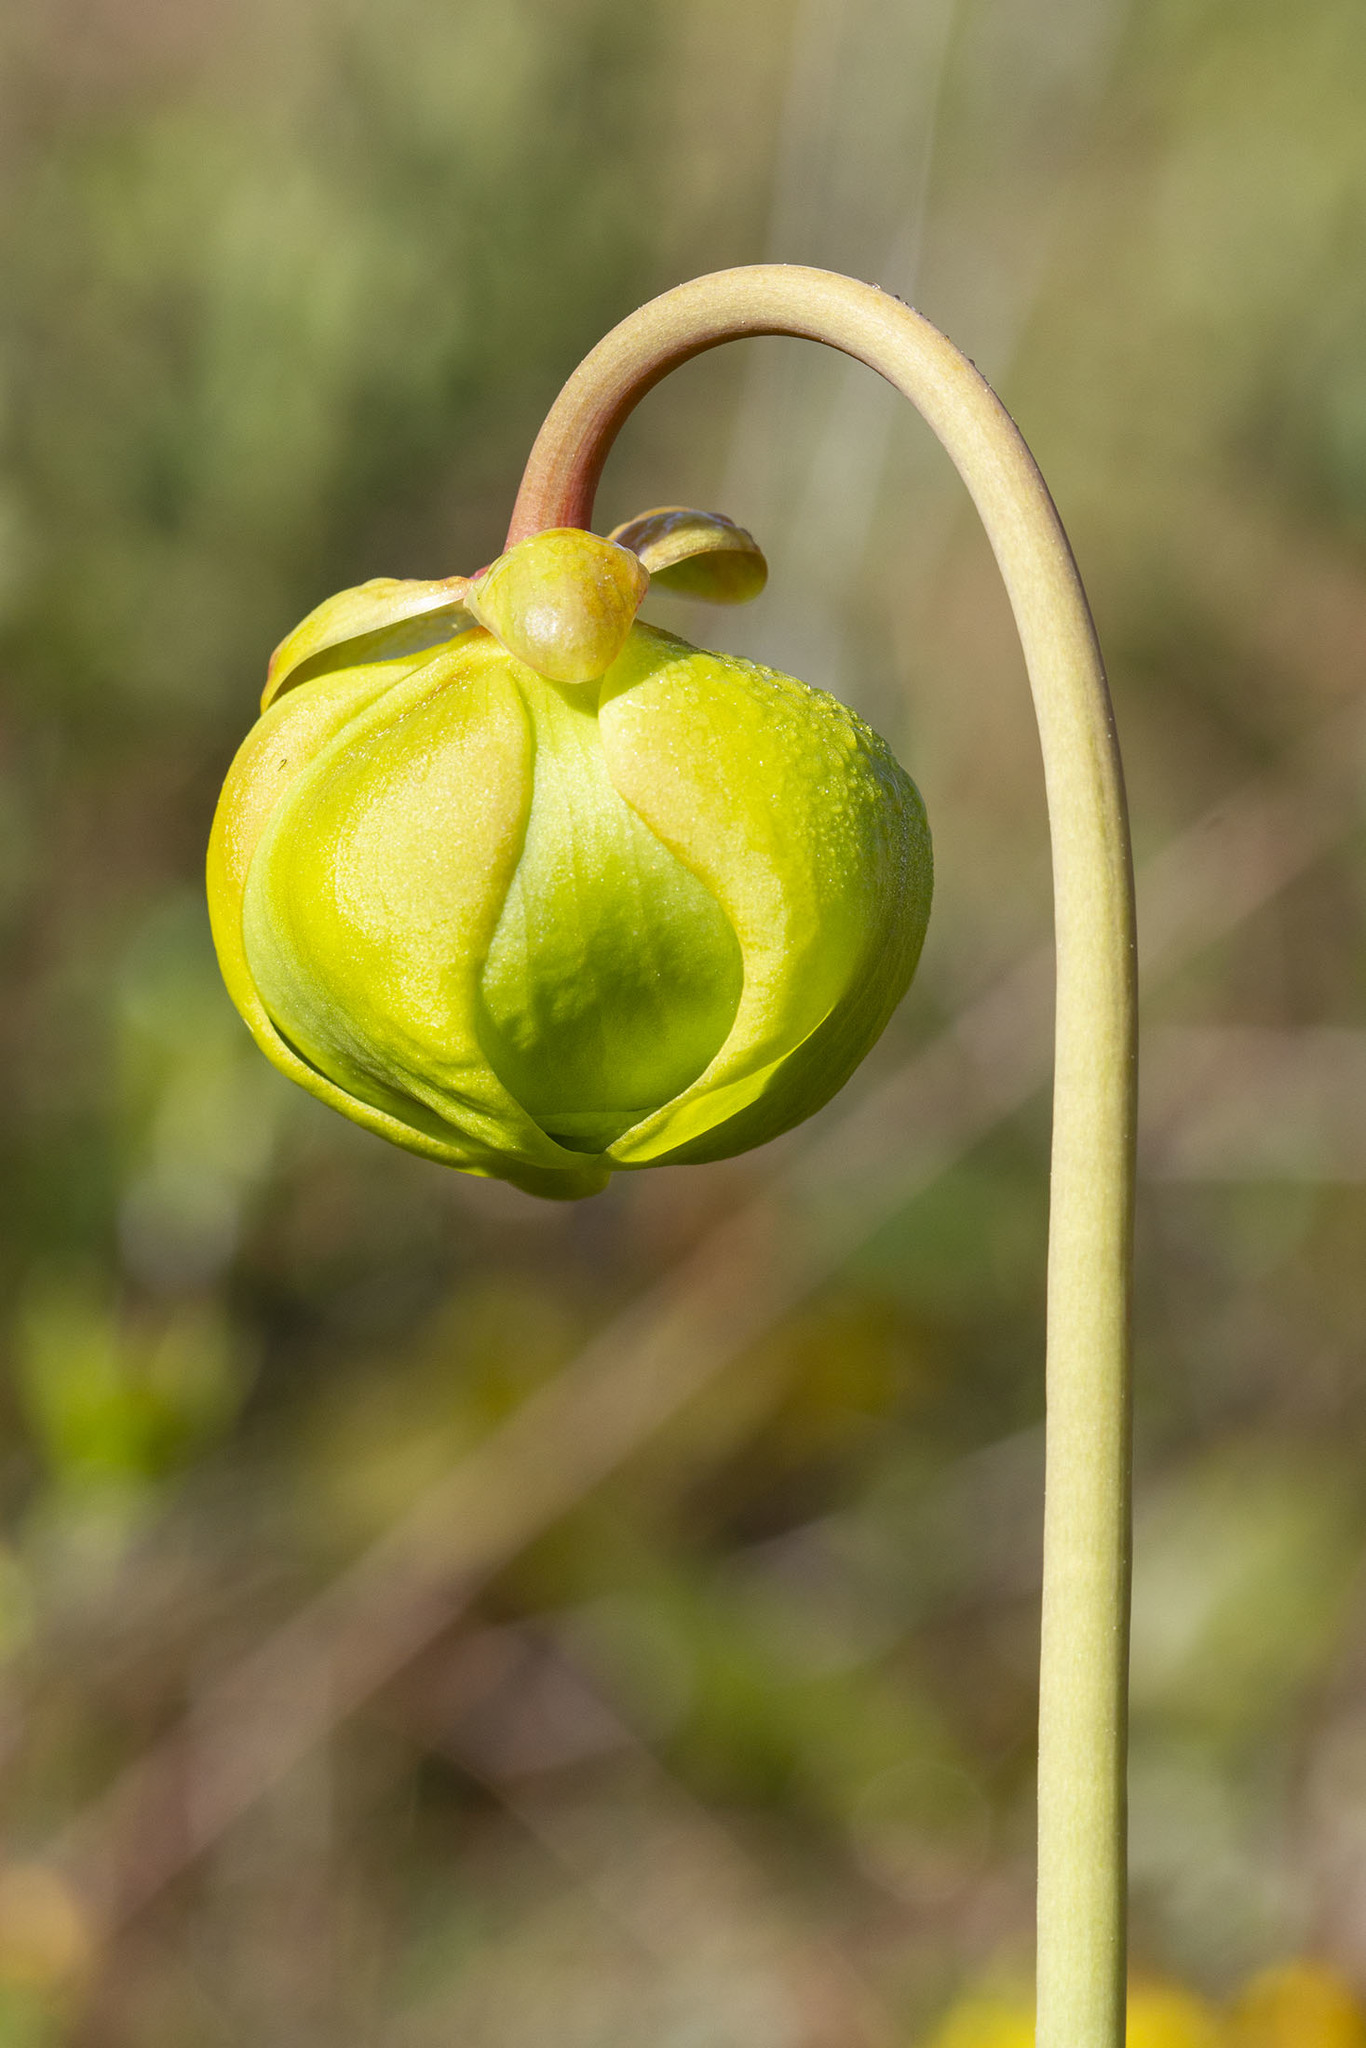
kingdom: Plantae
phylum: Tracheophyta
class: Magnoliopsida
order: Ericales
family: Sarraceniaceae
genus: Sarracenia
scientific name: Sarracenia flava
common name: Trumpets
